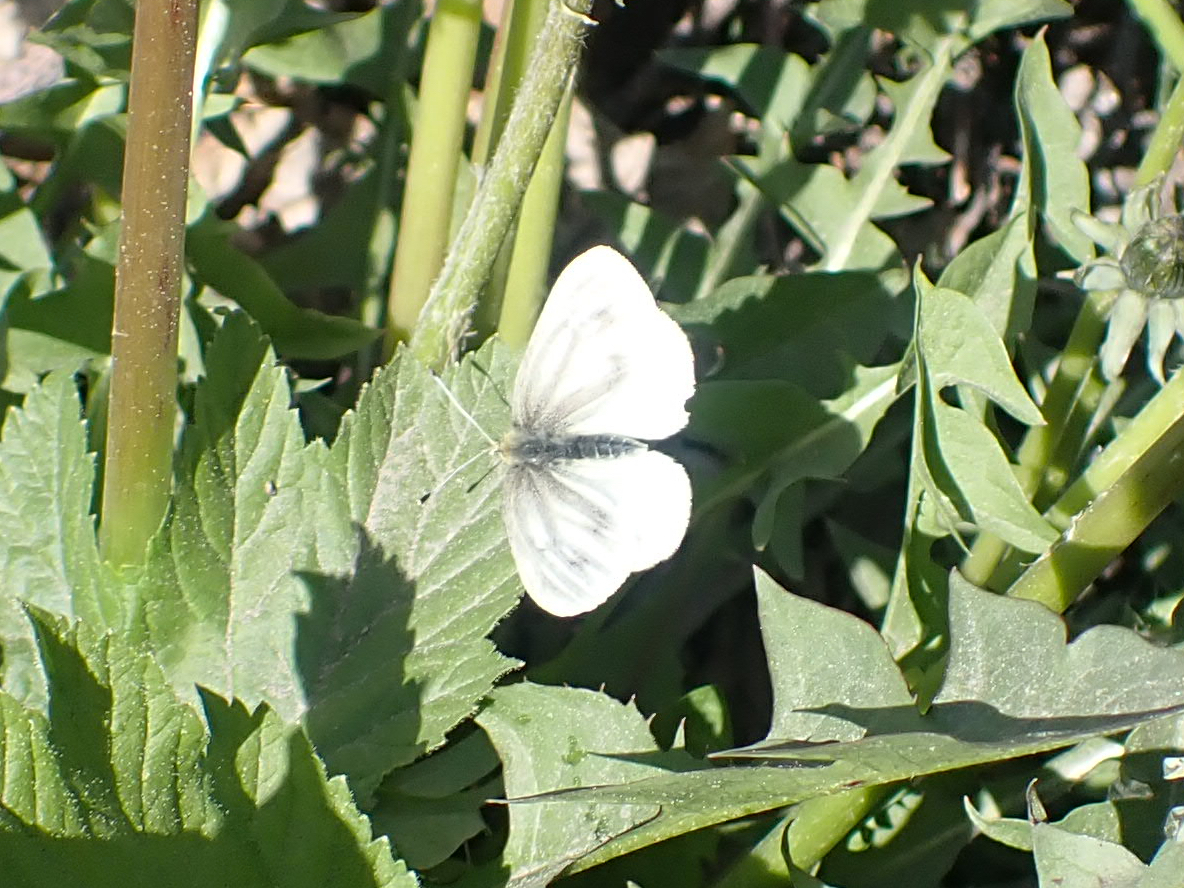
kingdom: Animalia
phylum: Arthropoda
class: Insecta
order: Lepidoptera
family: Pieridae
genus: Pieris
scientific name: Pieris marginalis
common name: Margined white
